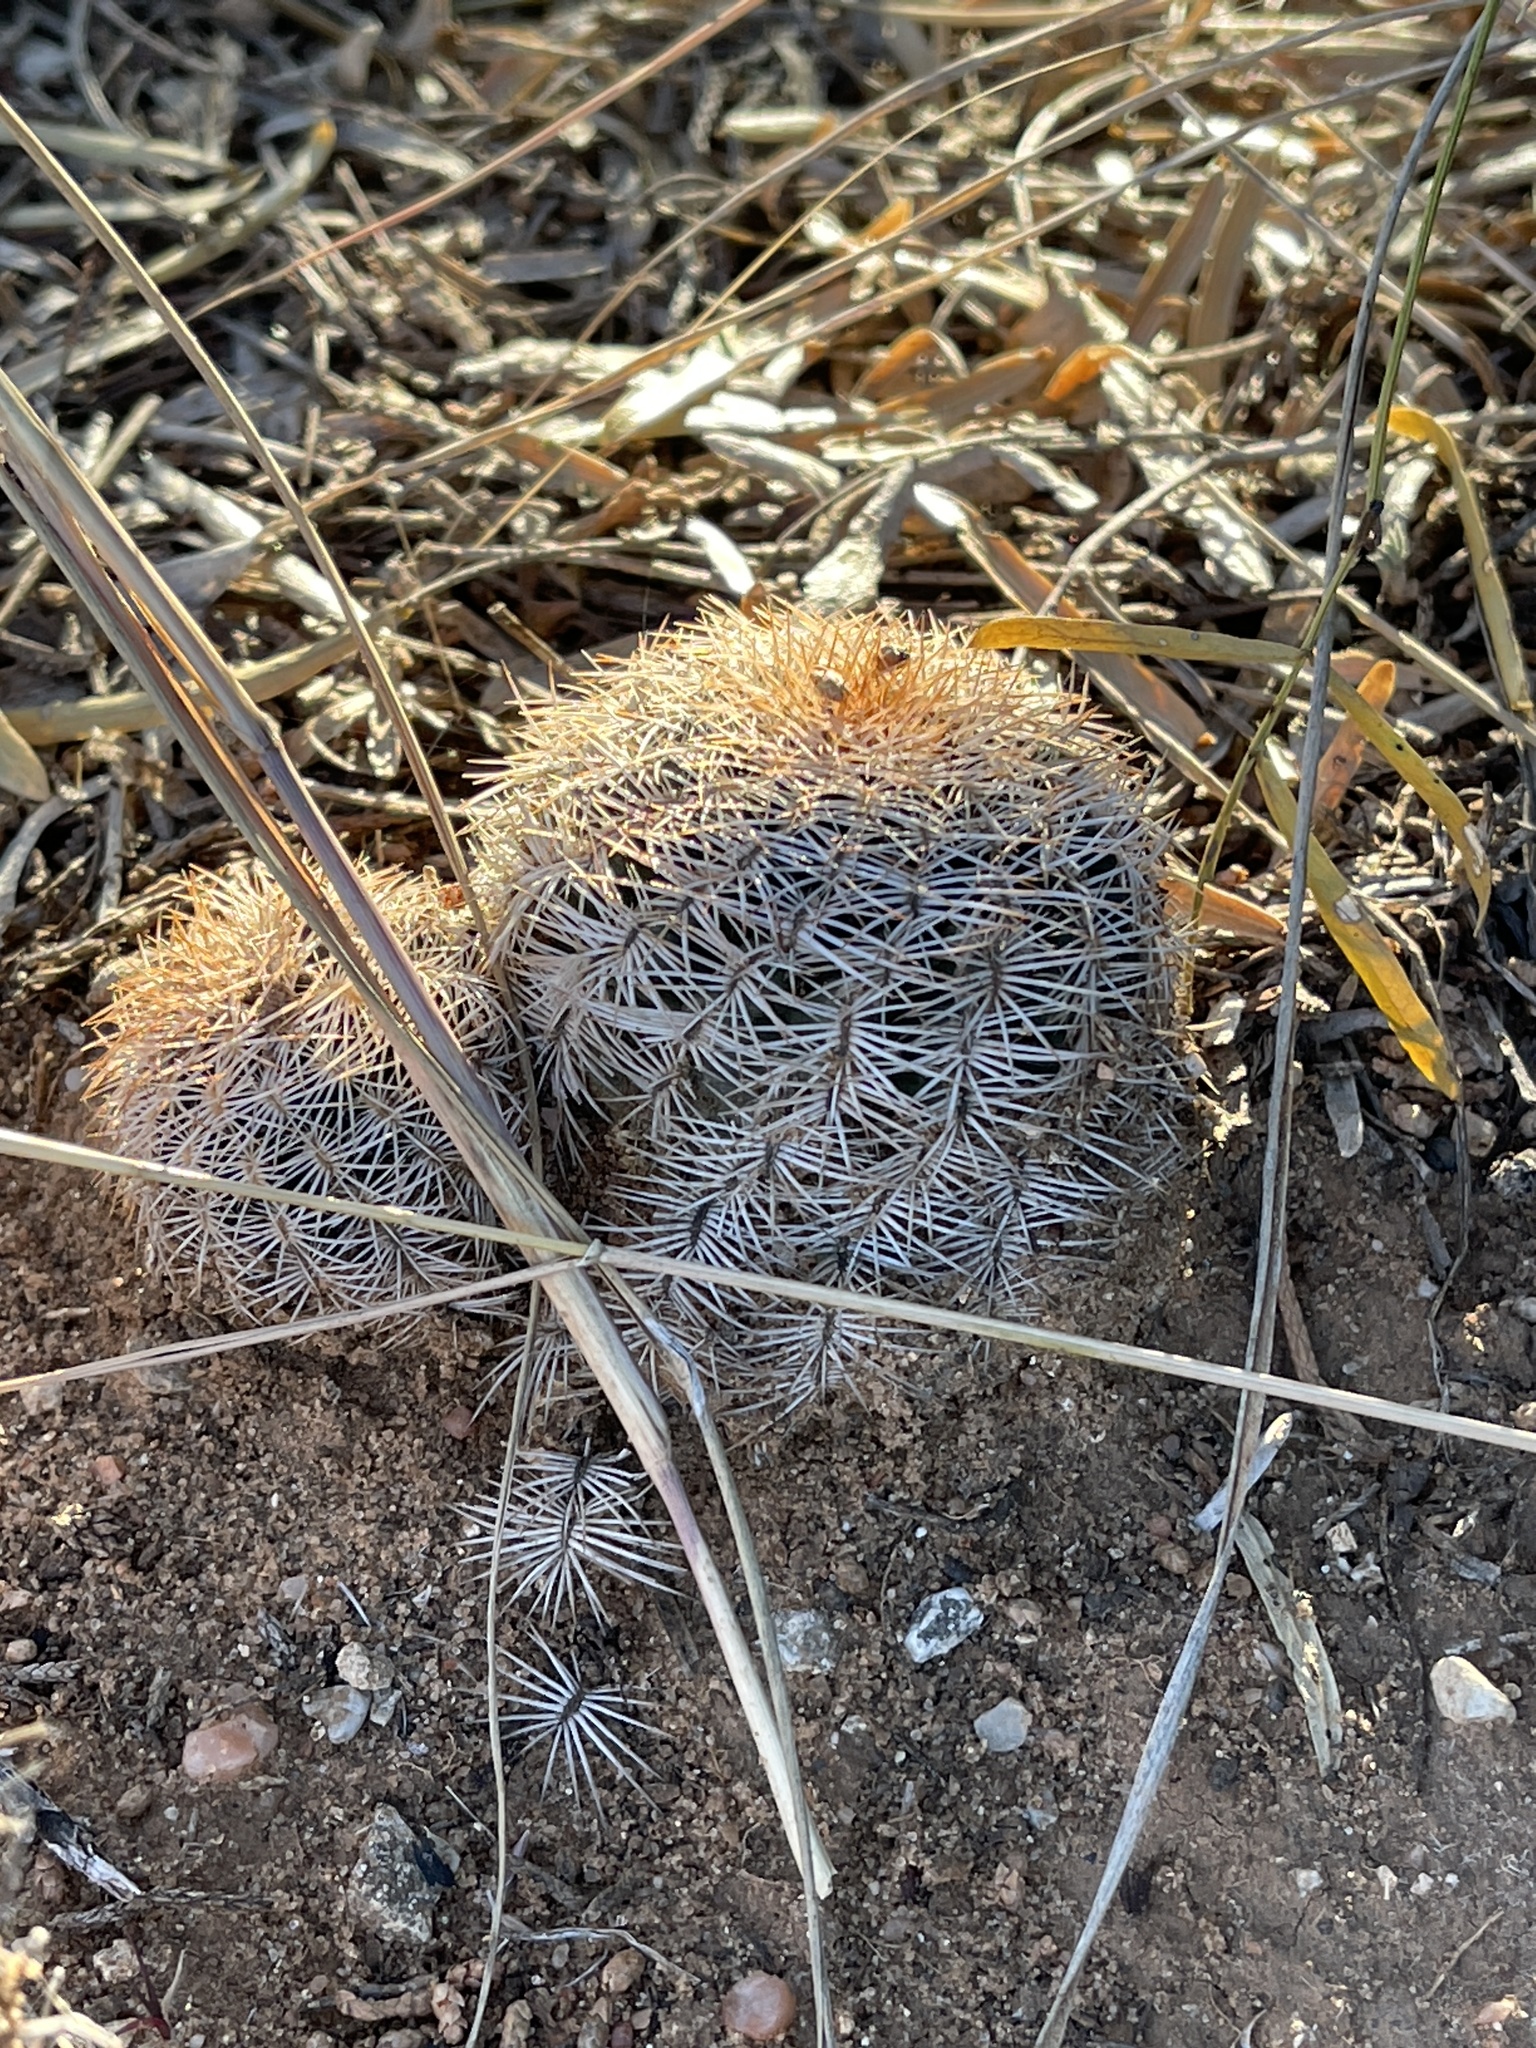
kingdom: Plantae
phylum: Tracheophyta
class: Magnoliopsida
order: Caryophyllales
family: Cactaceae
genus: Echinocereus
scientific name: Echinocereus reichenbachii
